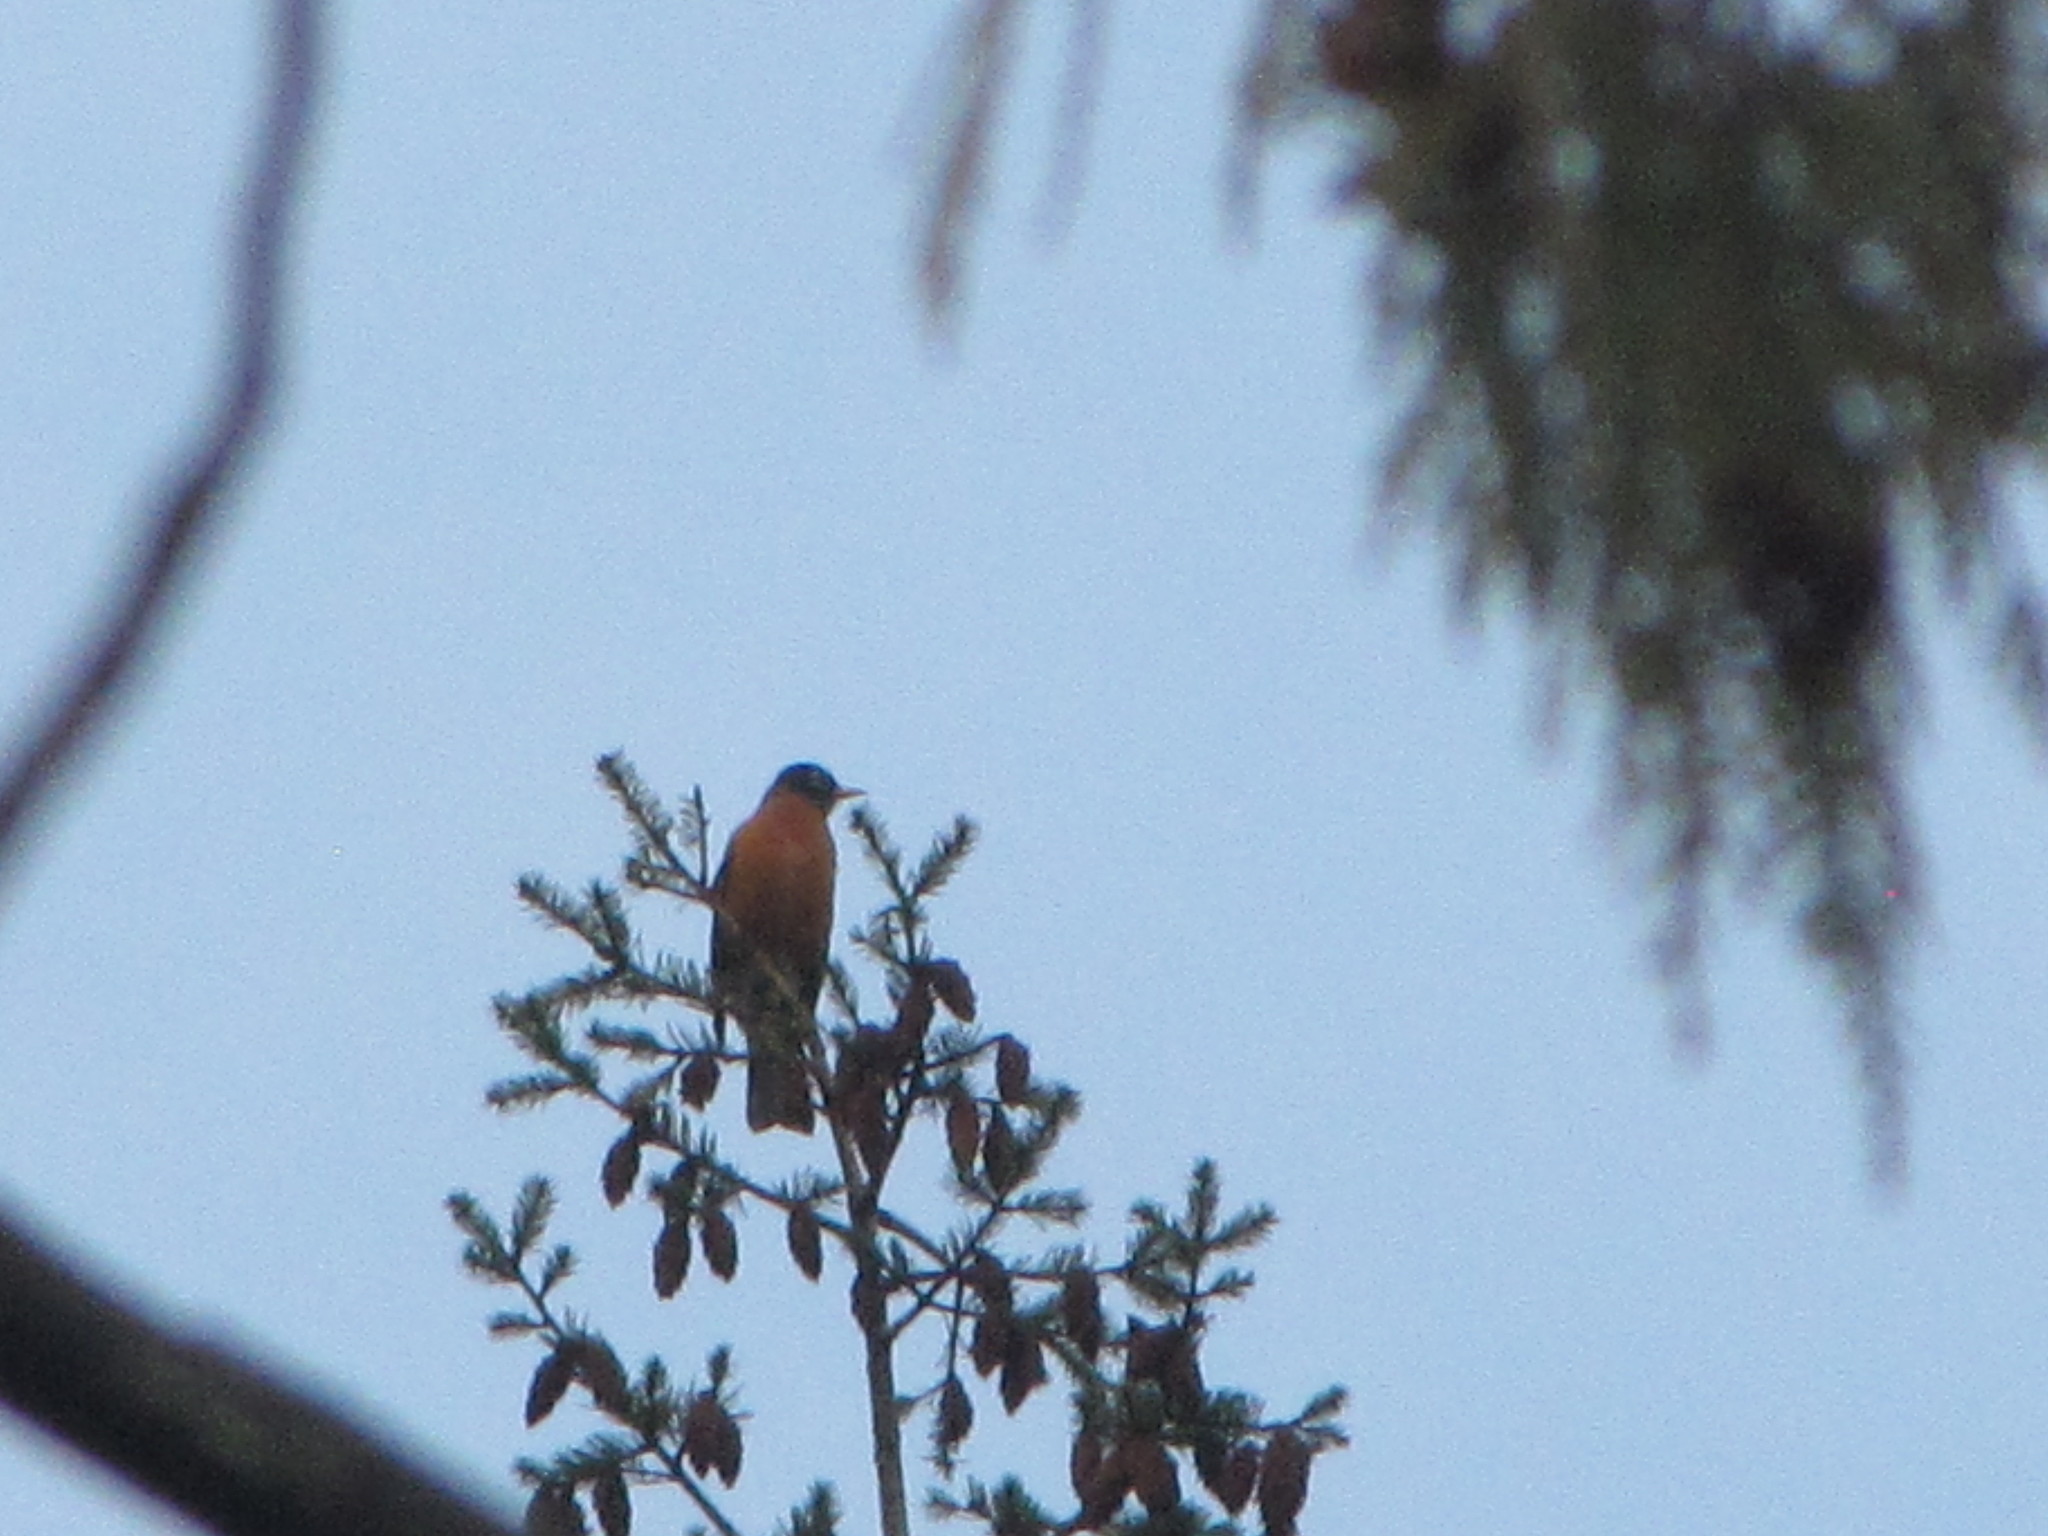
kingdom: Animalia
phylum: Chordata
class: Aves
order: Passeriformes
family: Turdidae
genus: Turdus
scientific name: Turdus migratorius
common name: American robin
